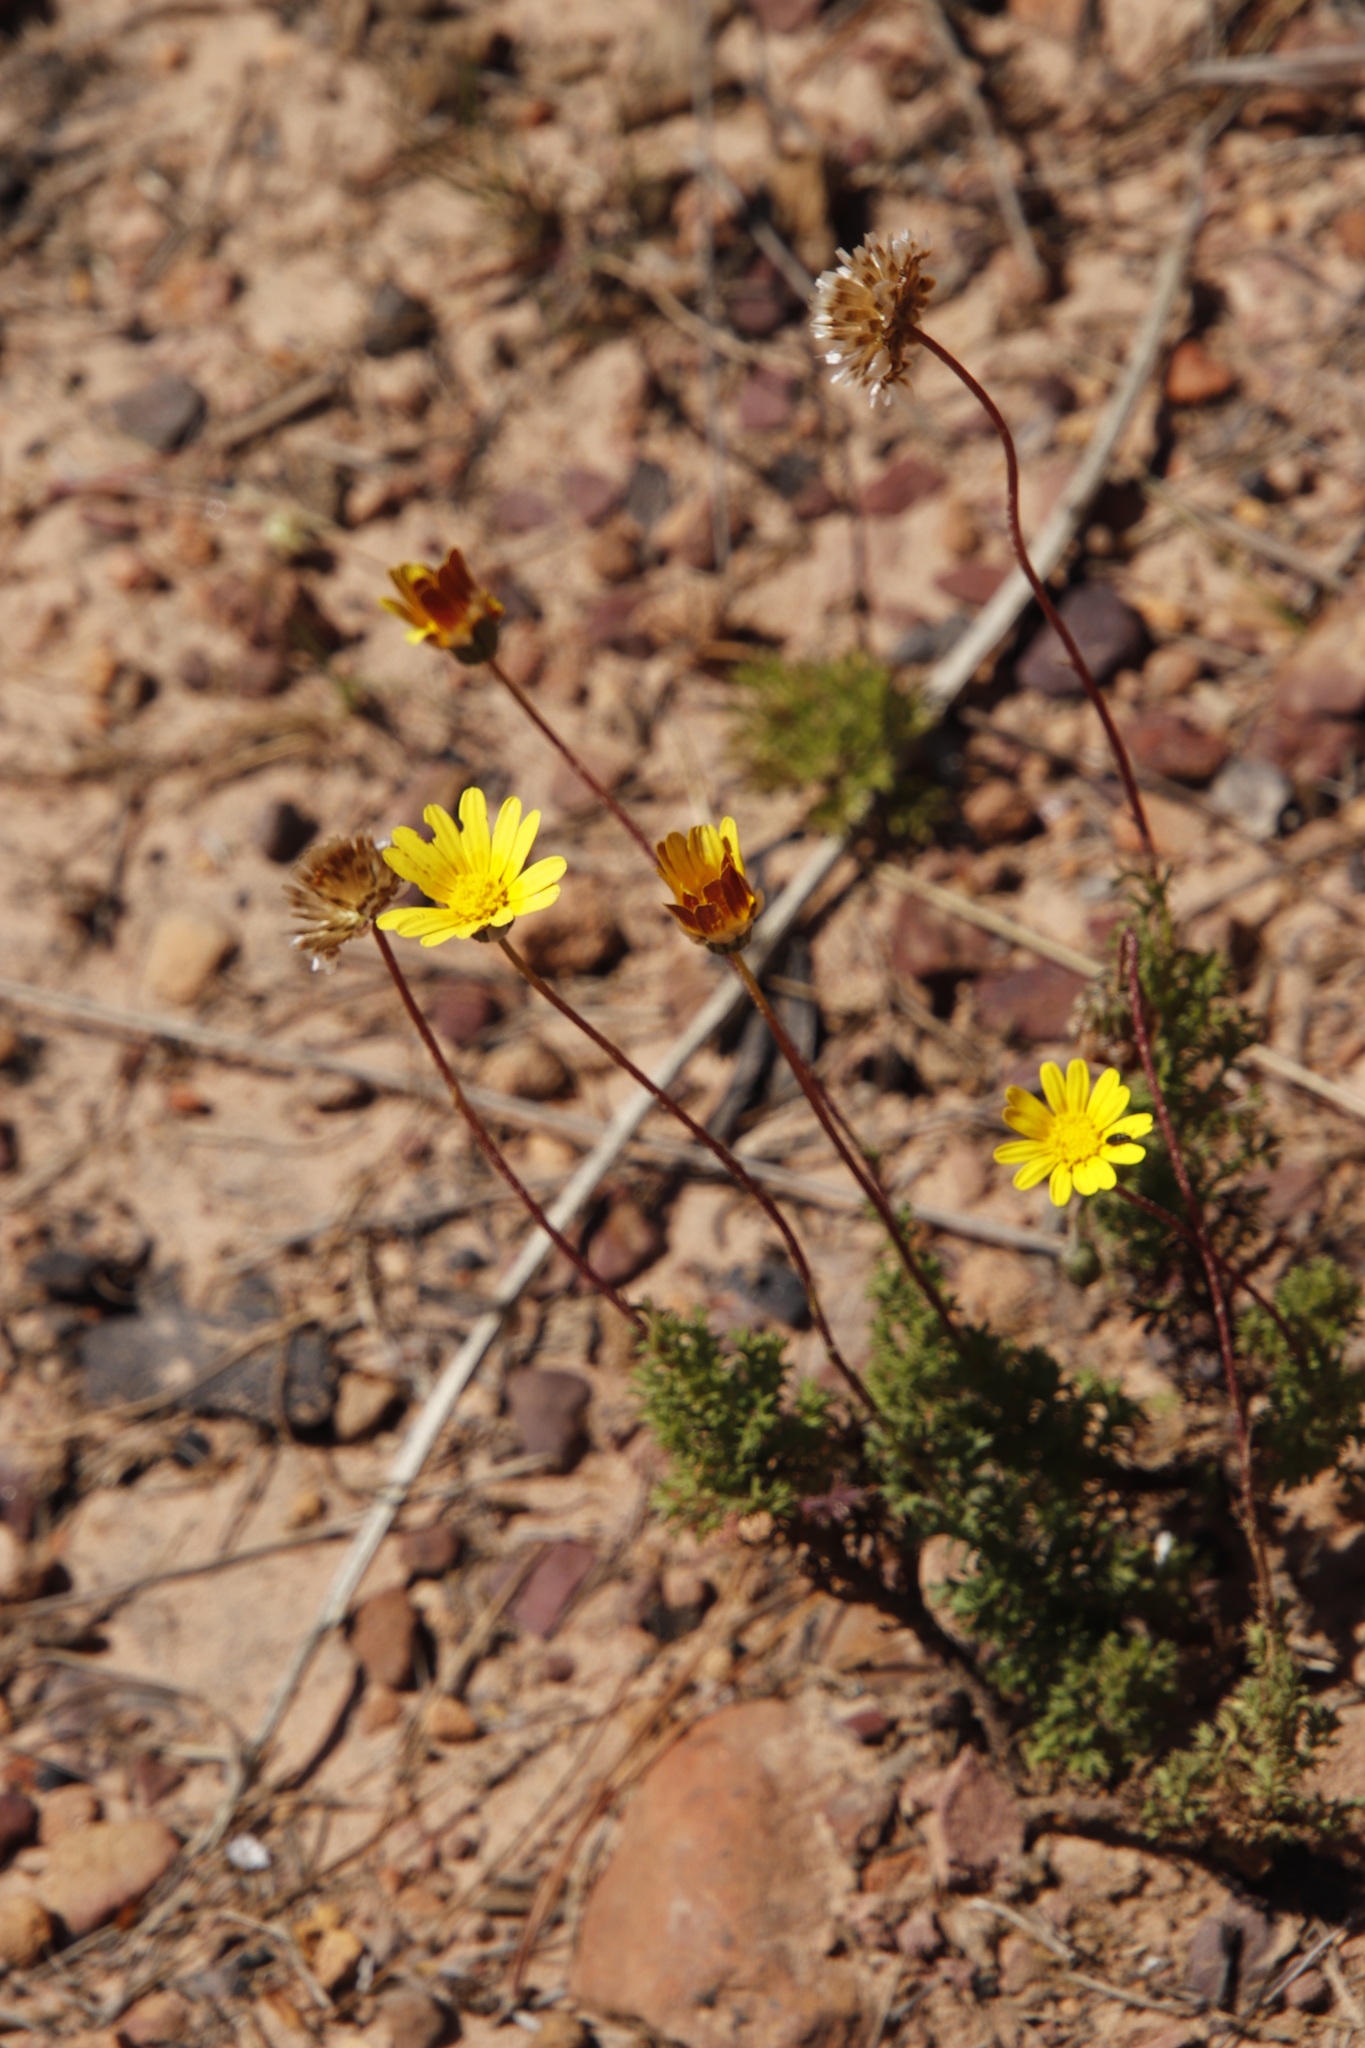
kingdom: Plantae
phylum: Tracheophyta
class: Magnoliopsida
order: Asterales
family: Asteraceae
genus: Ursinia
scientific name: Ursinia paleacea
